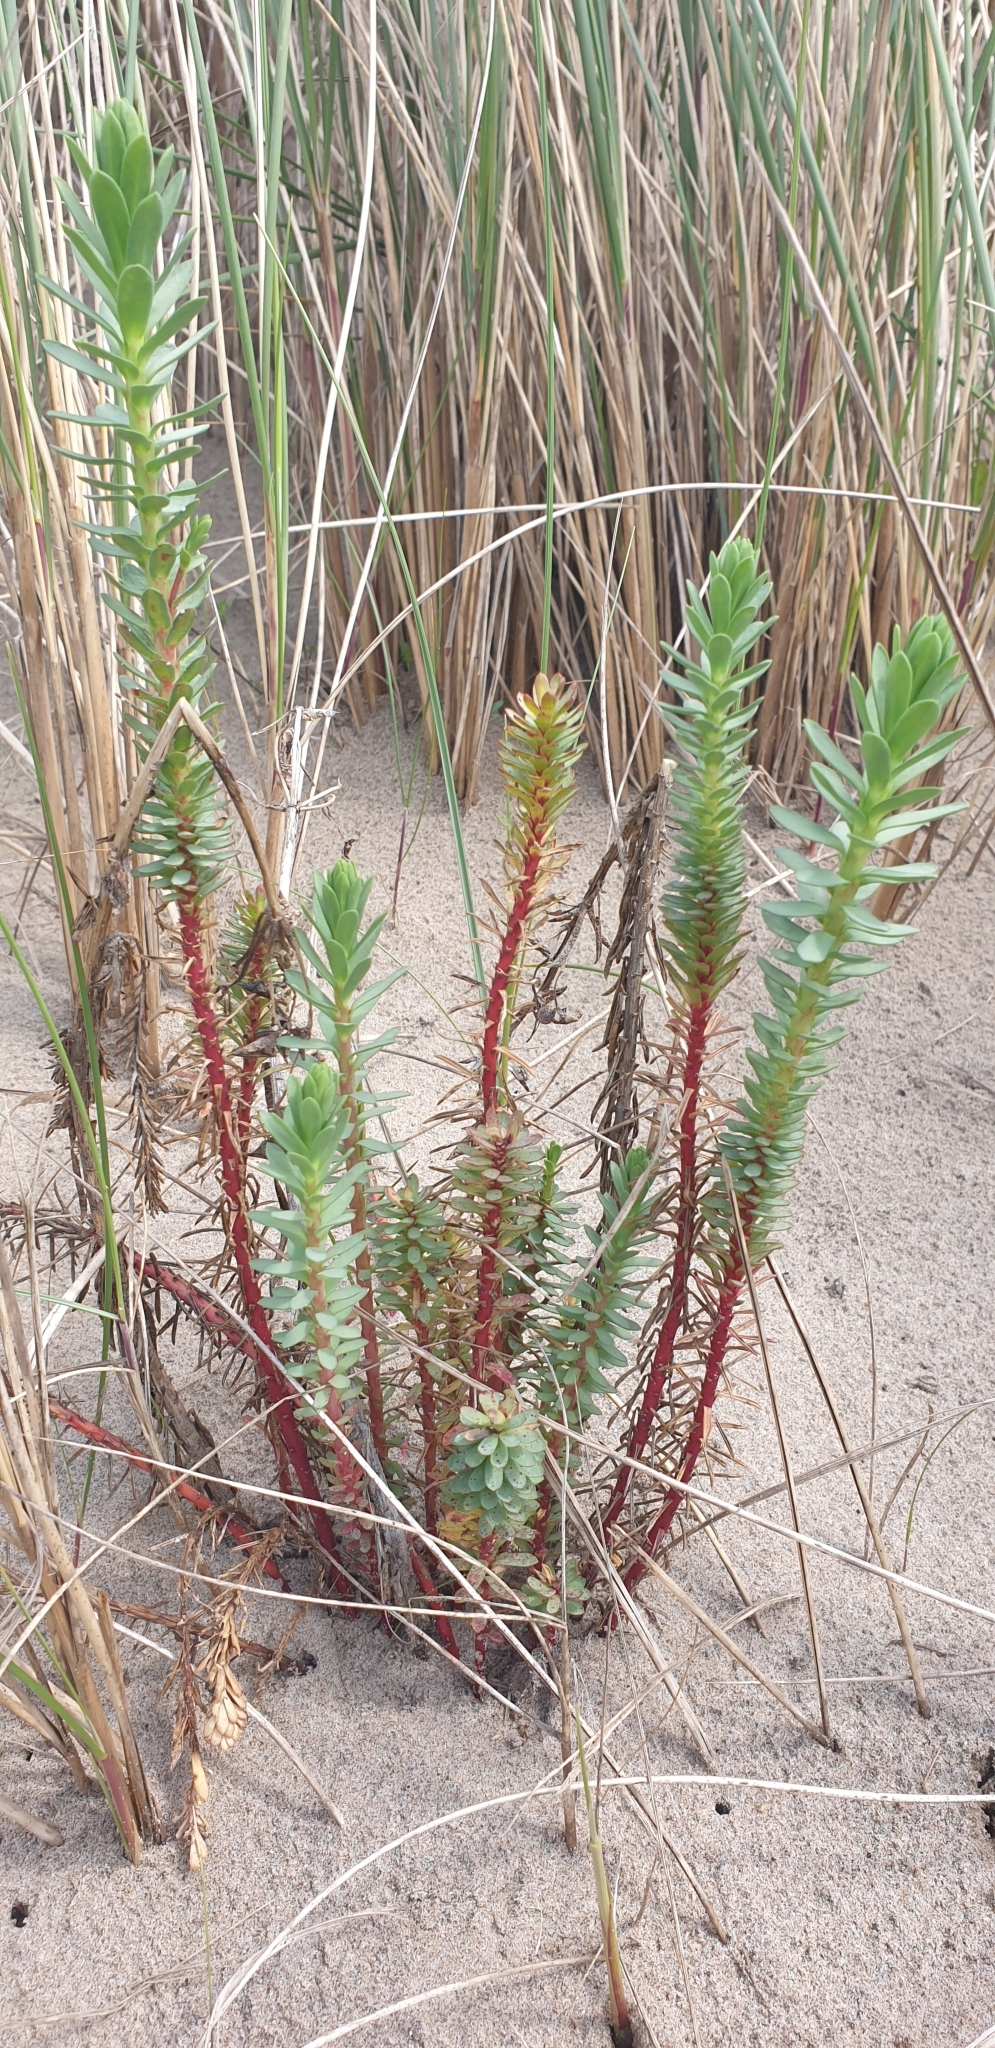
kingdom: Plantae
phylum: Tracheophyta
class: Magnoliopsida
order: Malpighiales
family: Euphorbiaceae
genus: Euphorbia
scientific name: Euphorbia paralias
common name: Sea spurge
